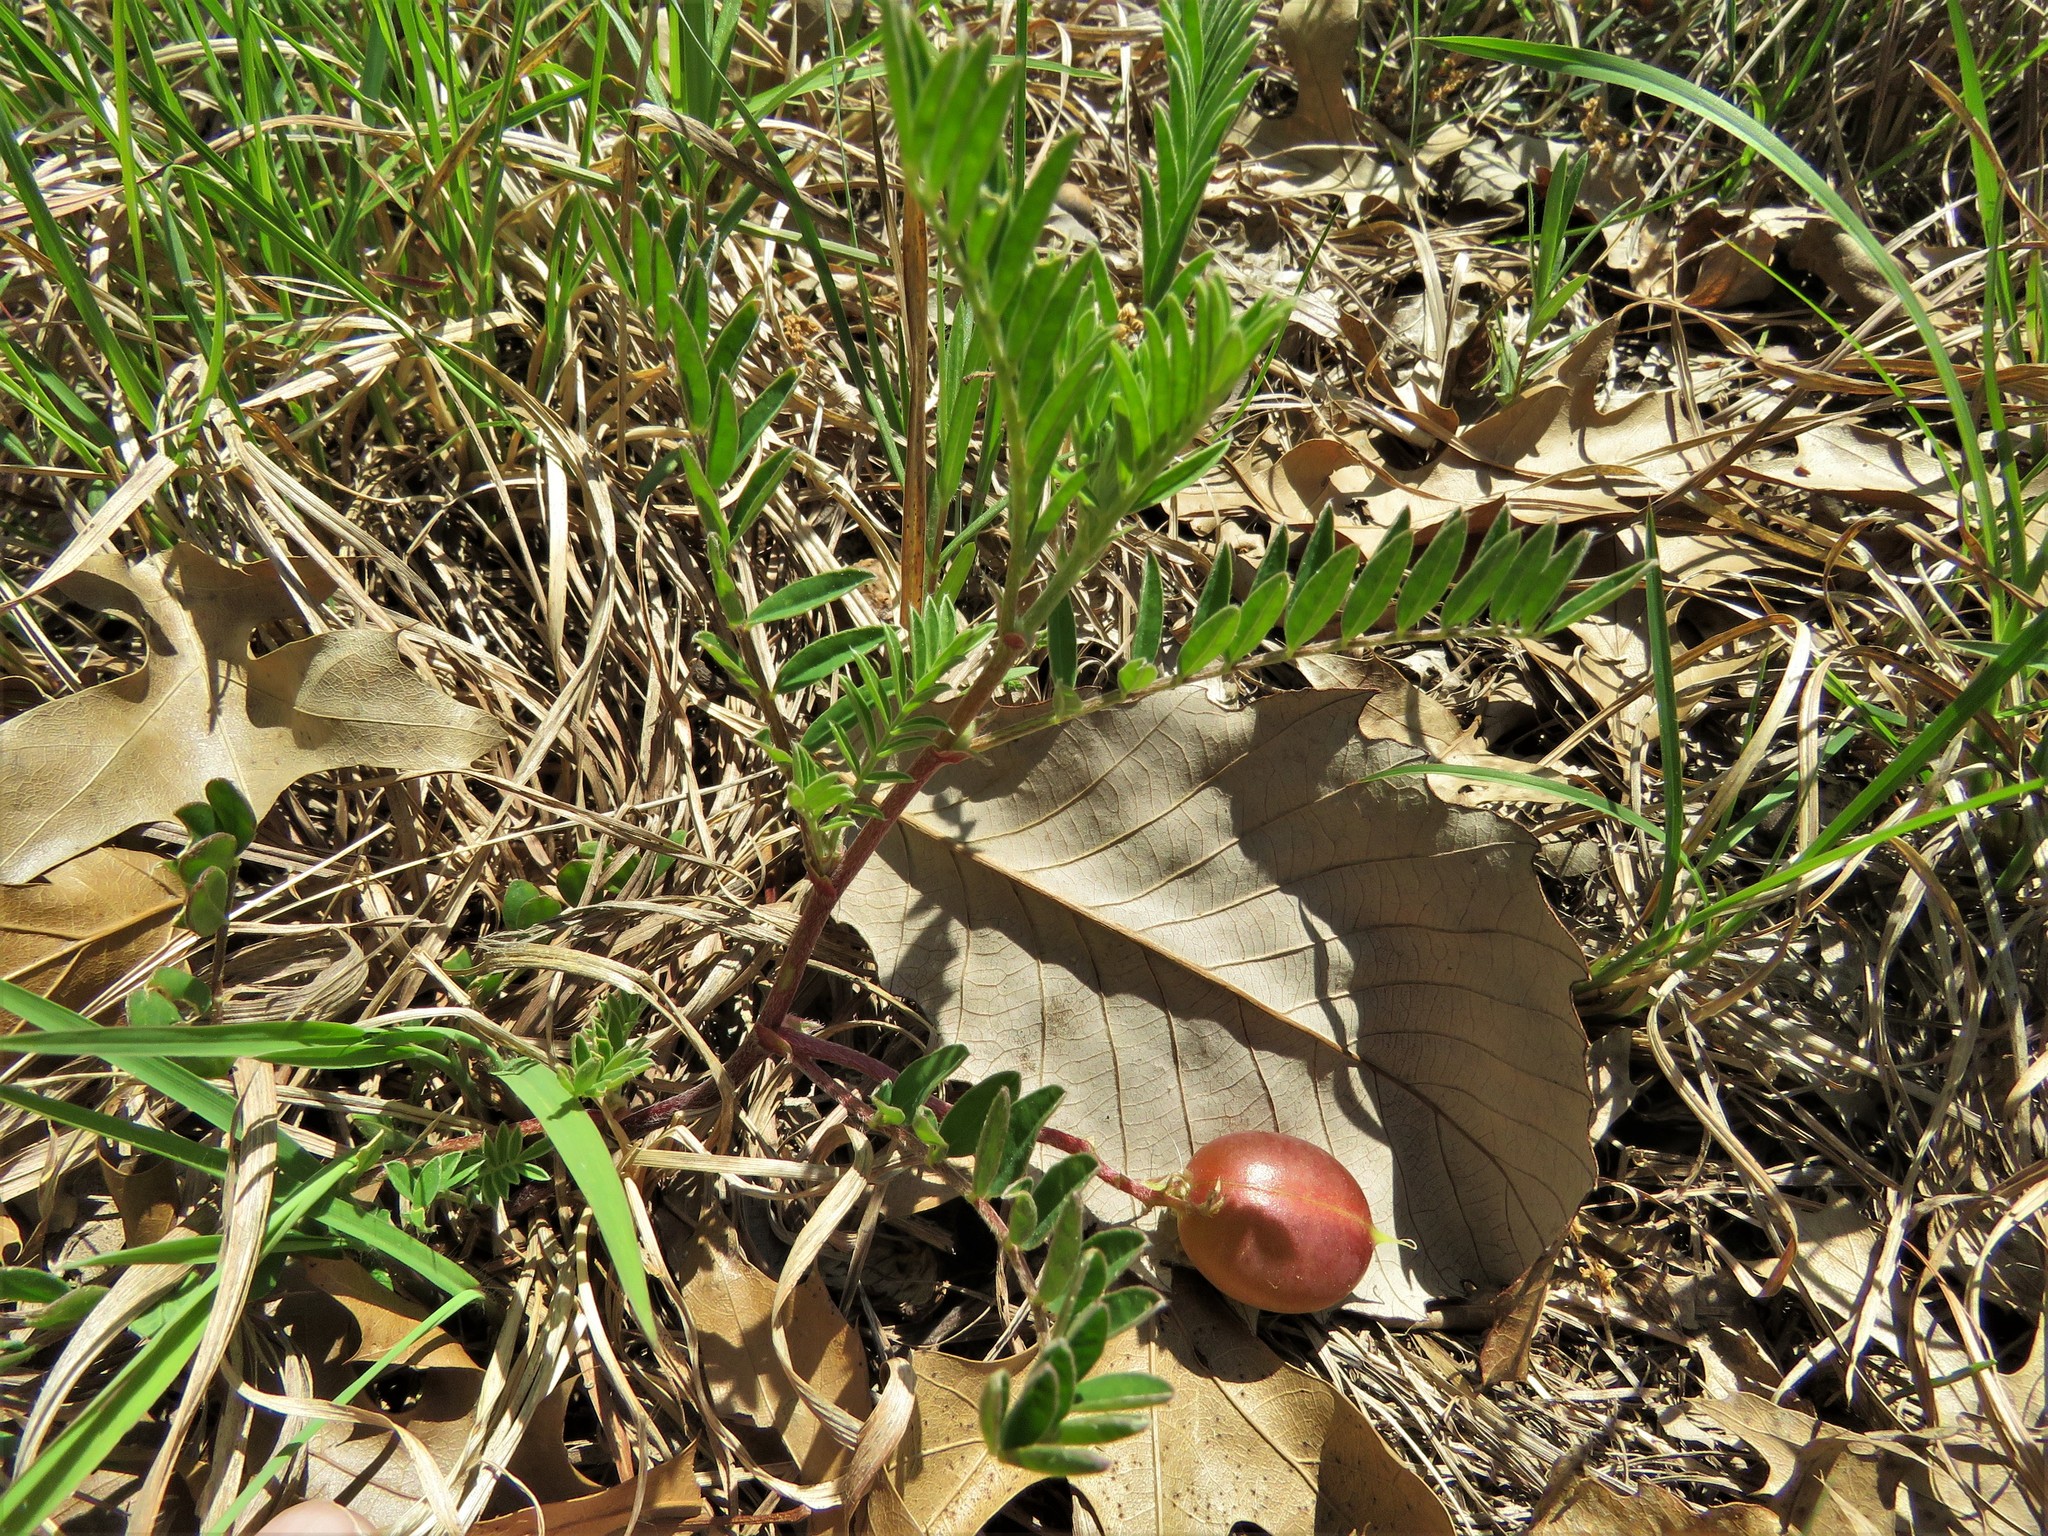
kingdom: Plantae
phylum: Tracheophyta
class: Magnoliopsida
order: Fabales
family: Fabaceae
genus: Astragalus
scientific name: Astragalus crassicarpus
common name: Ground-plum milk-vetch
